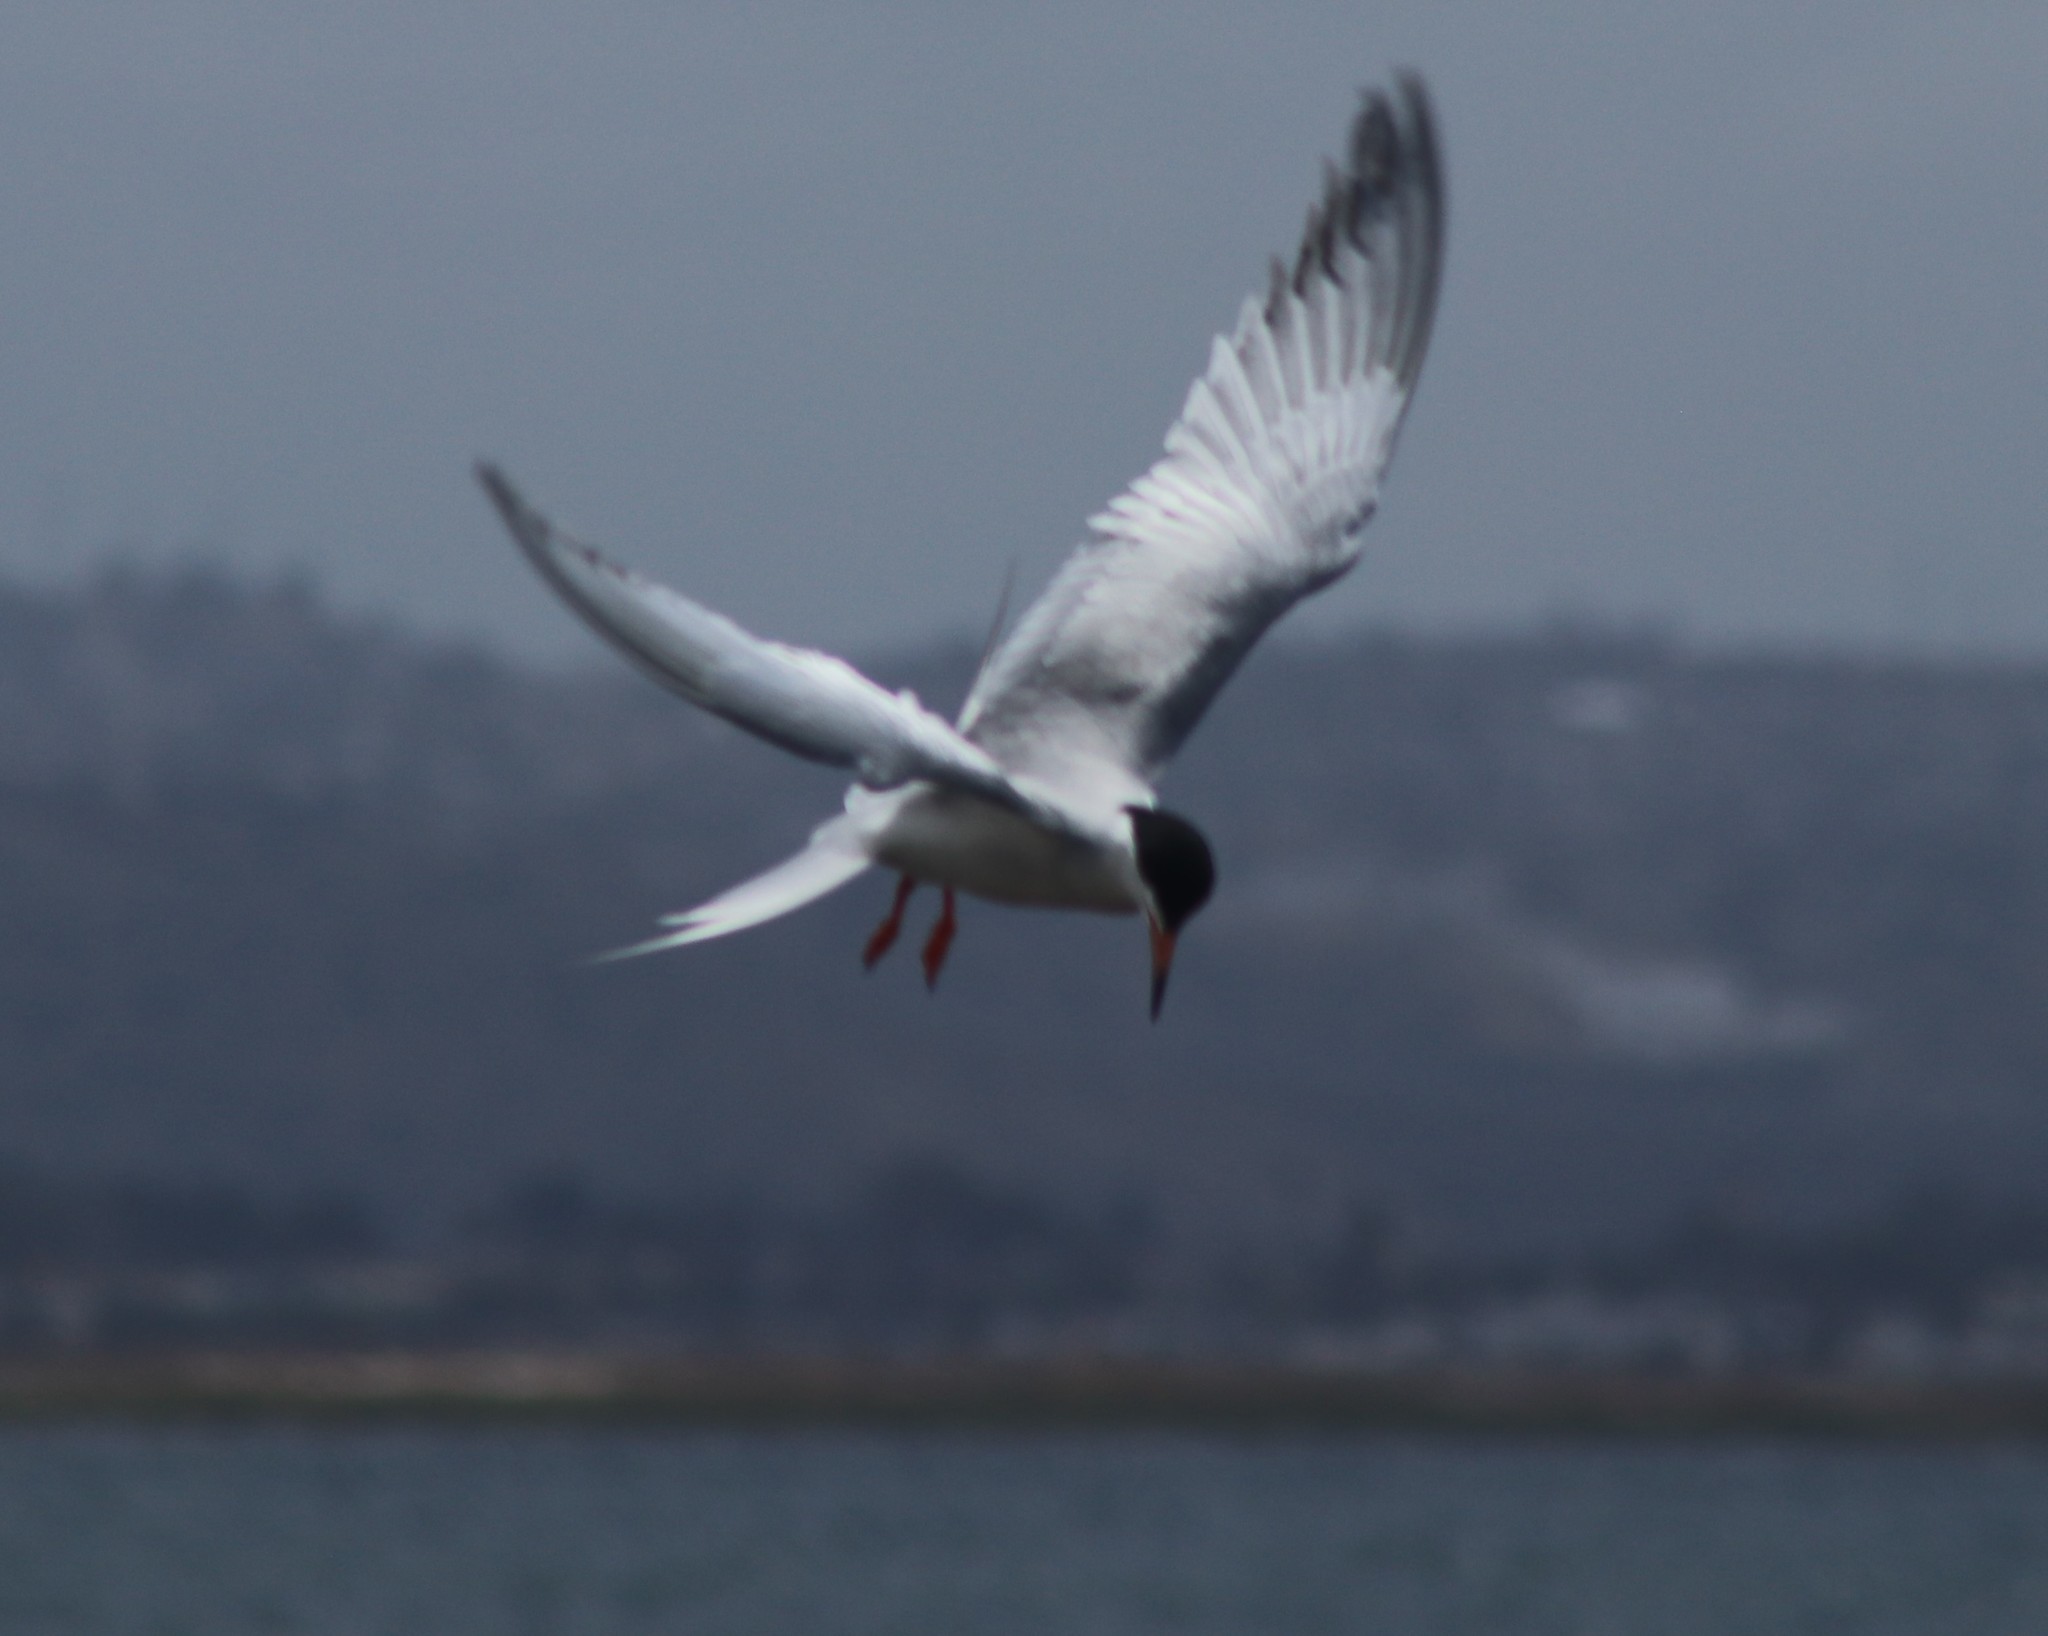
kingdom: Animalia
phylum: Chordata
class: Aves
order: Charadriiformes
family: Laridae
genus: Sterna
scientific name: Sterna forsteri
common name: Forster's tern
